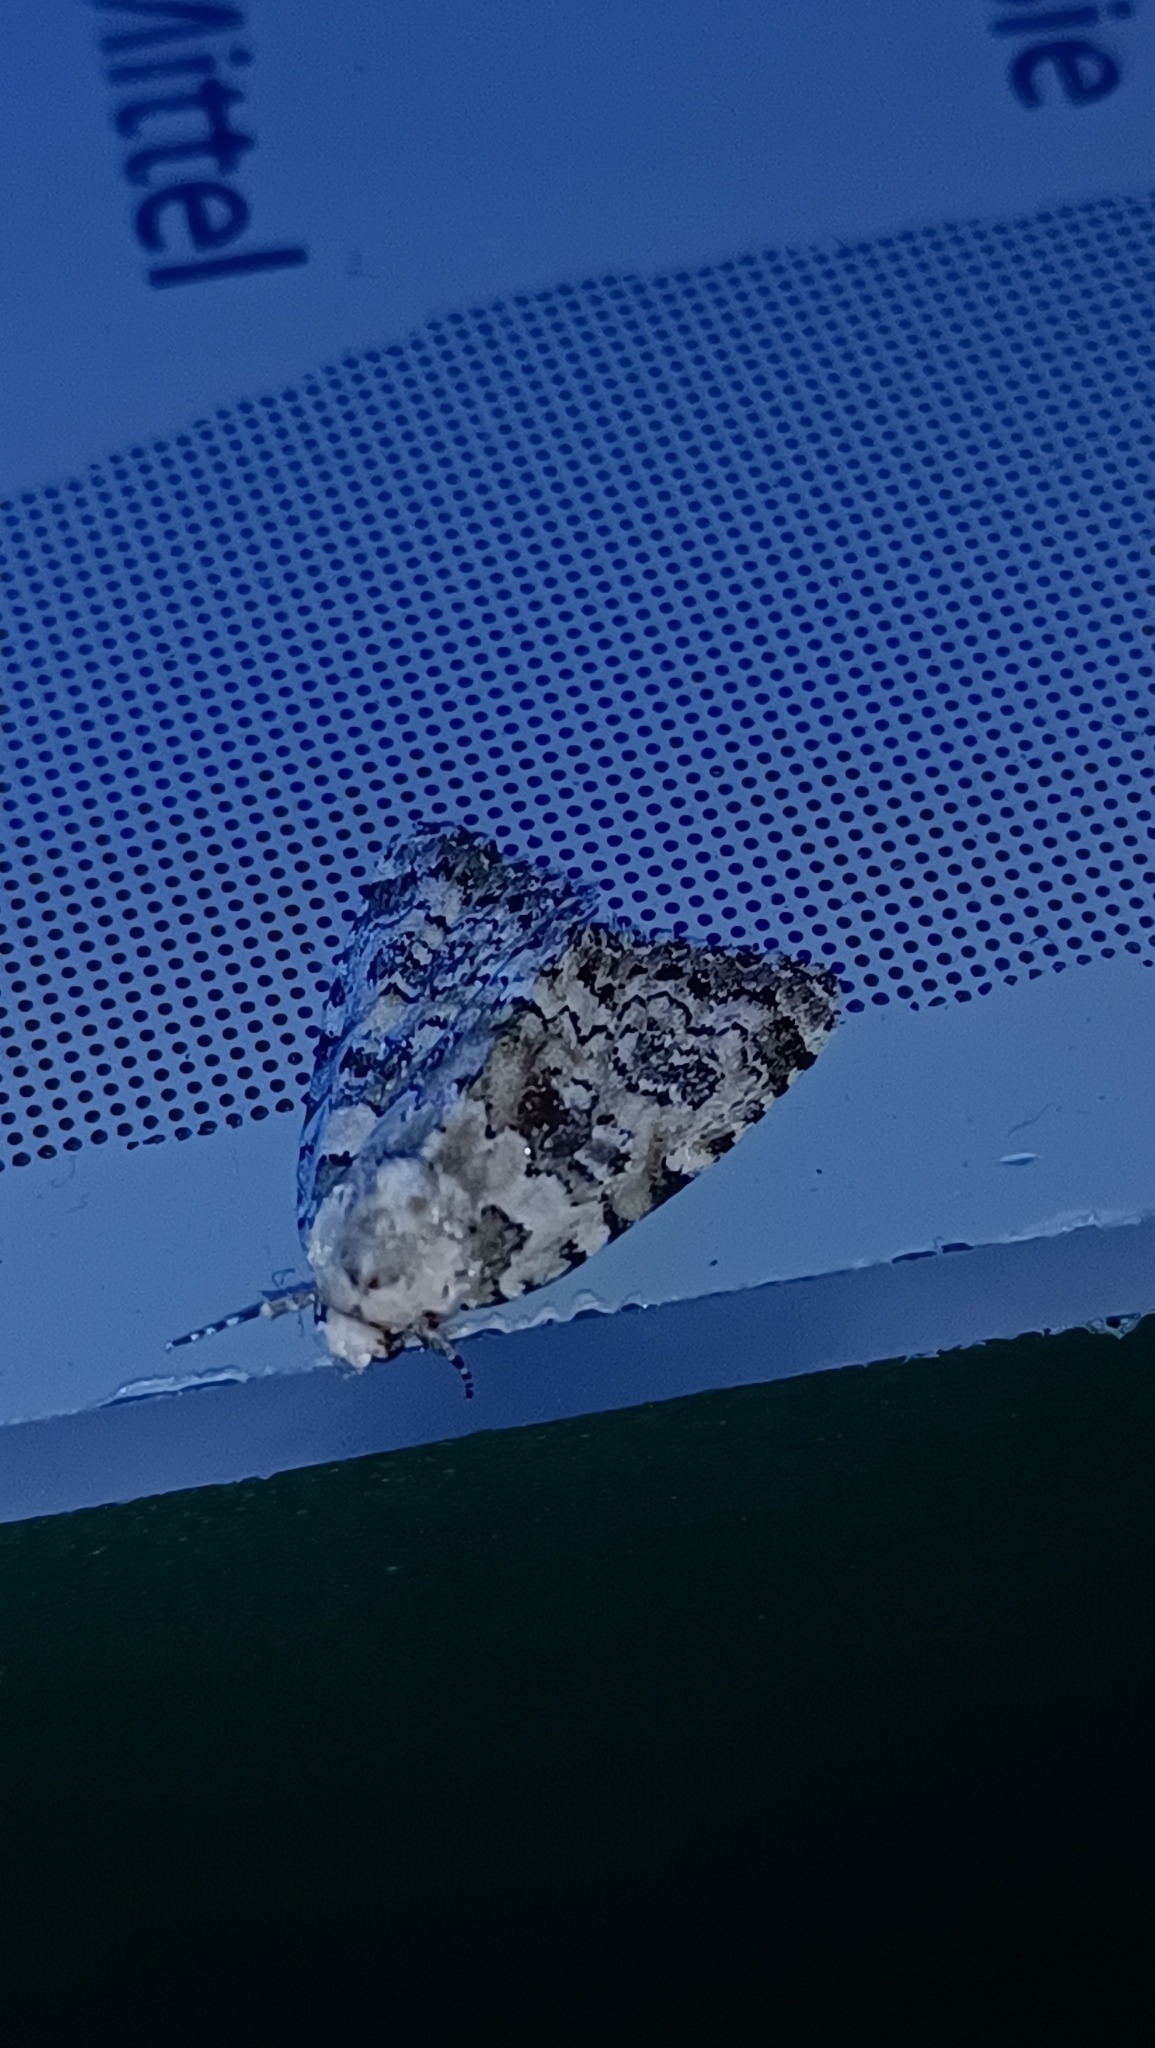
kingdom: Animalia
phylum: Arthropoda
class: Insecta
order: Lepidoptera
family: Noctuidae
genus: Bryophila
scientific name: Bryophila domestica
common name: Marbled beauty
